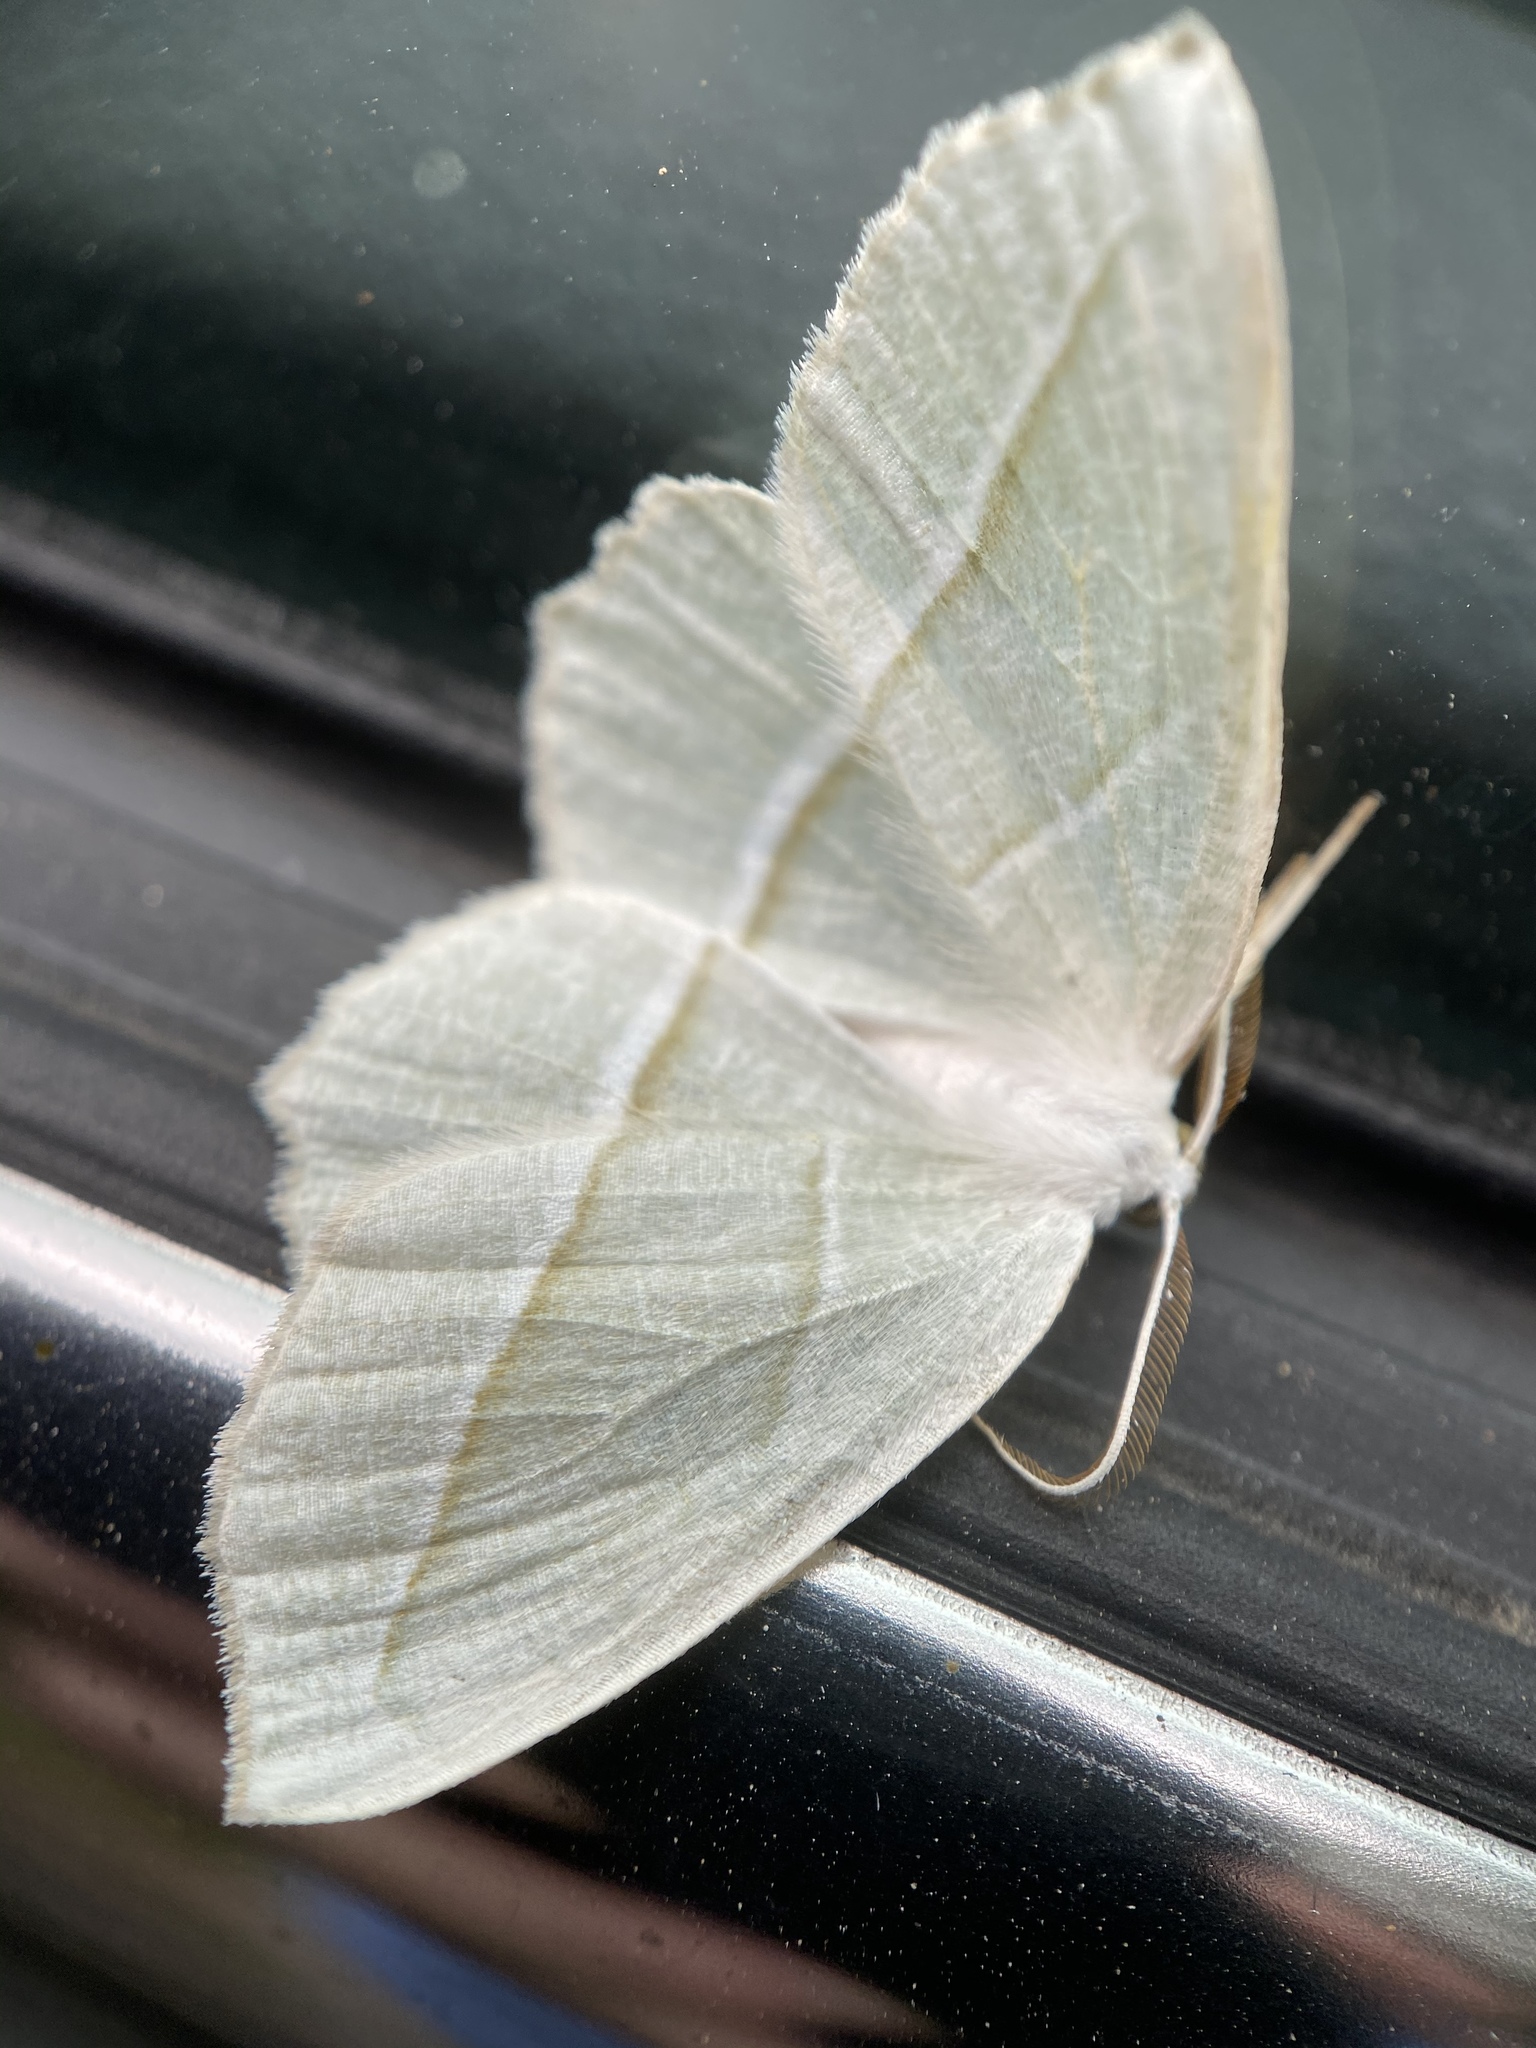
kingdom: Animalia
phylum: Arthropoda
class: Insecta
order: Lepidoptera
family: Geometridae
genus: Campaea
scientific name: Campaea perlata
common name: Fringed looper
